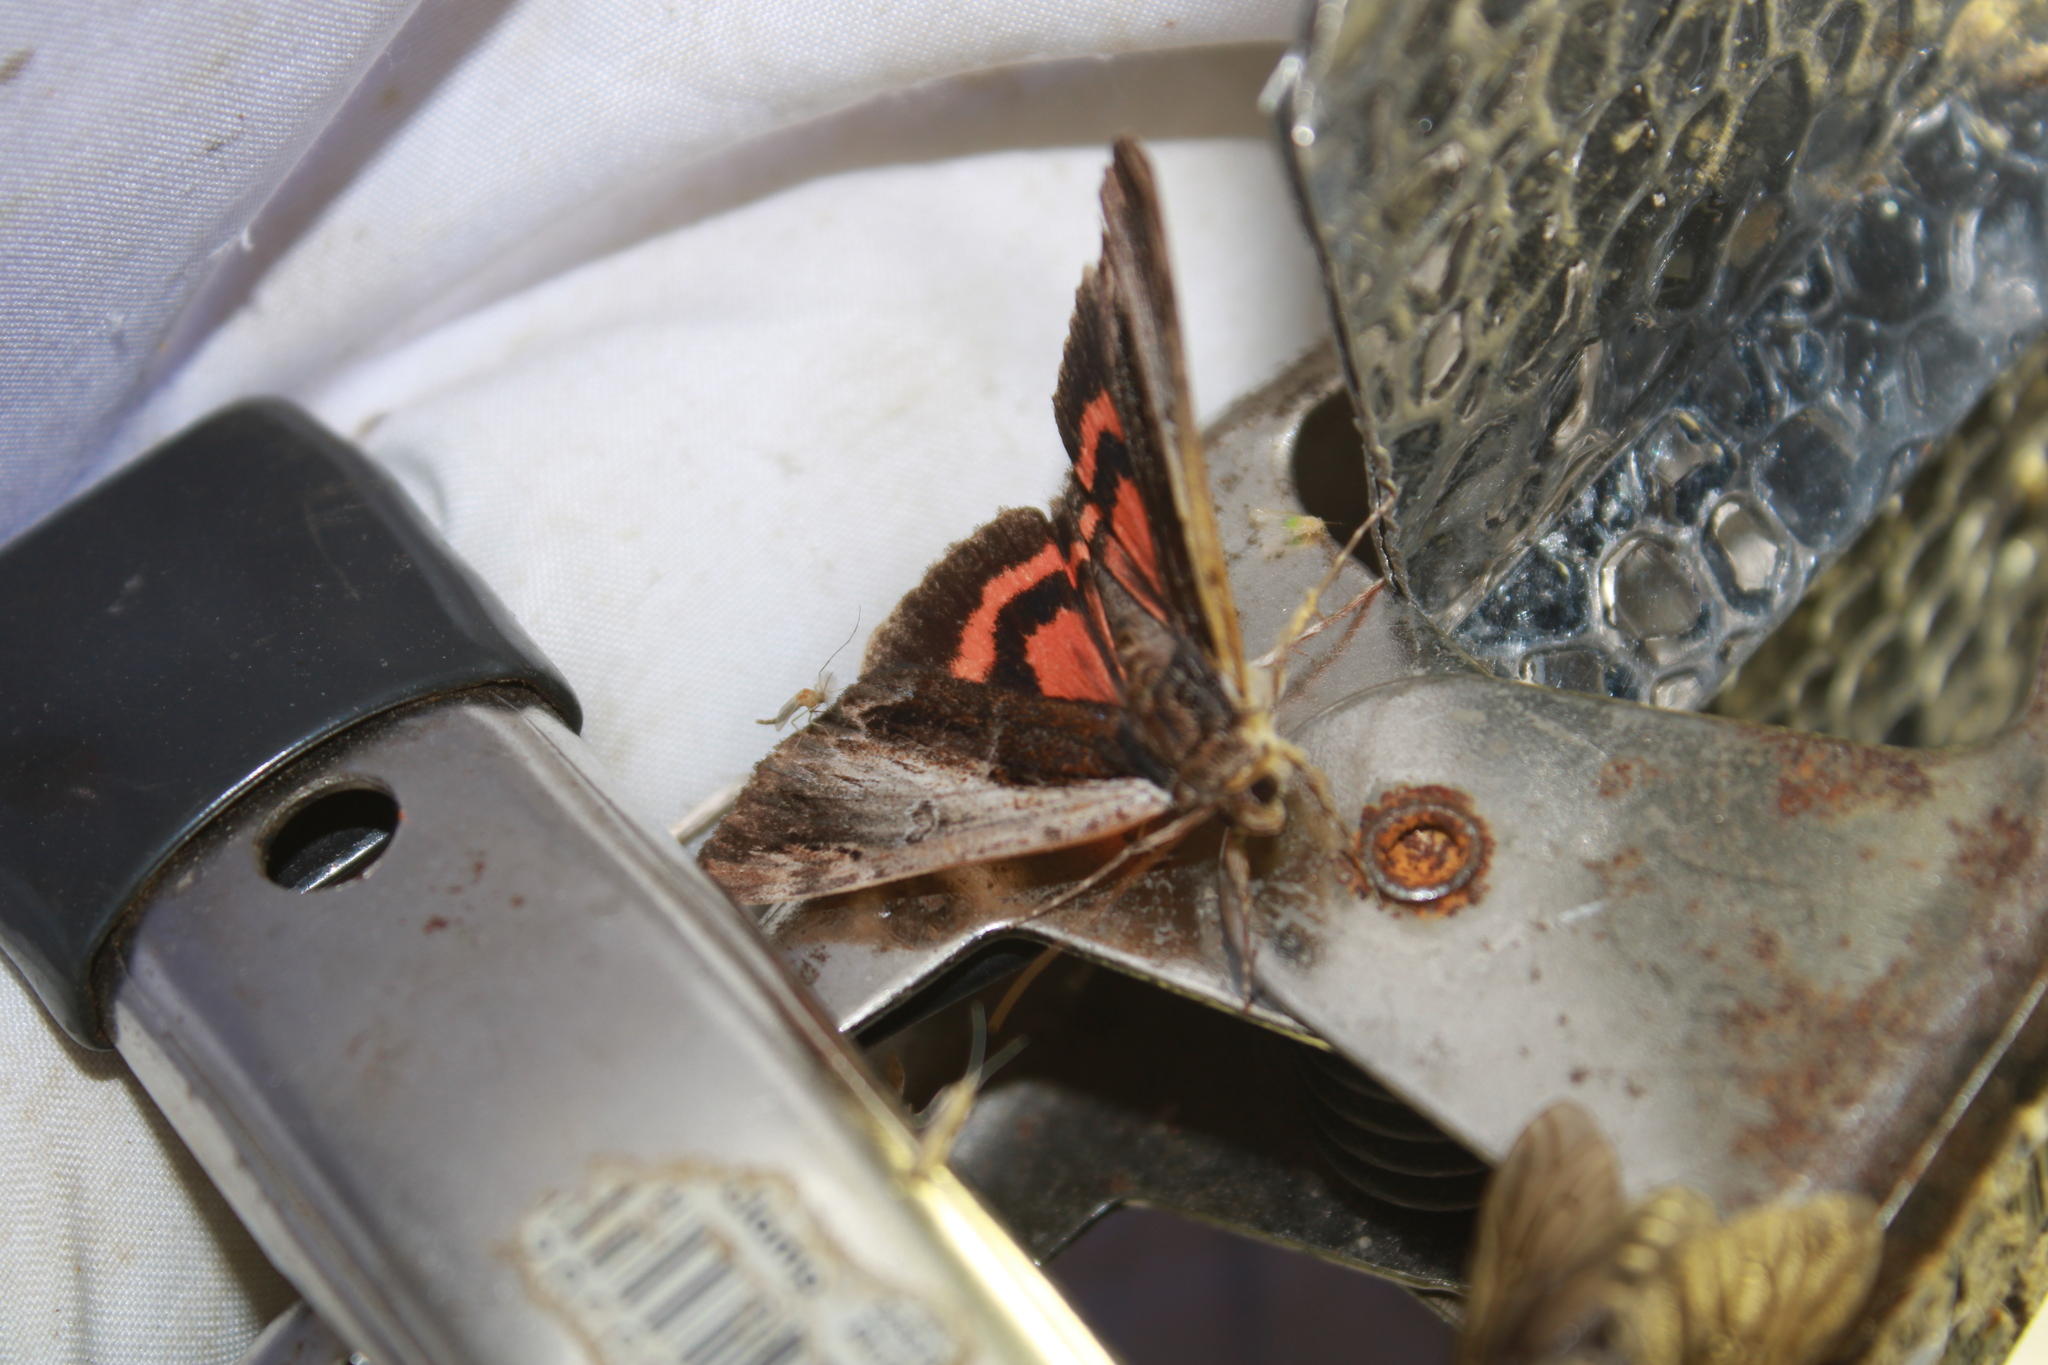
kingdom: Animalia
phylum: Arthropoda
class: Insecta
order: Lepidoptera
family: Erebidae
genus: Catocala
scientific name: Catocala ultronia
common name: Ultronia underwing
